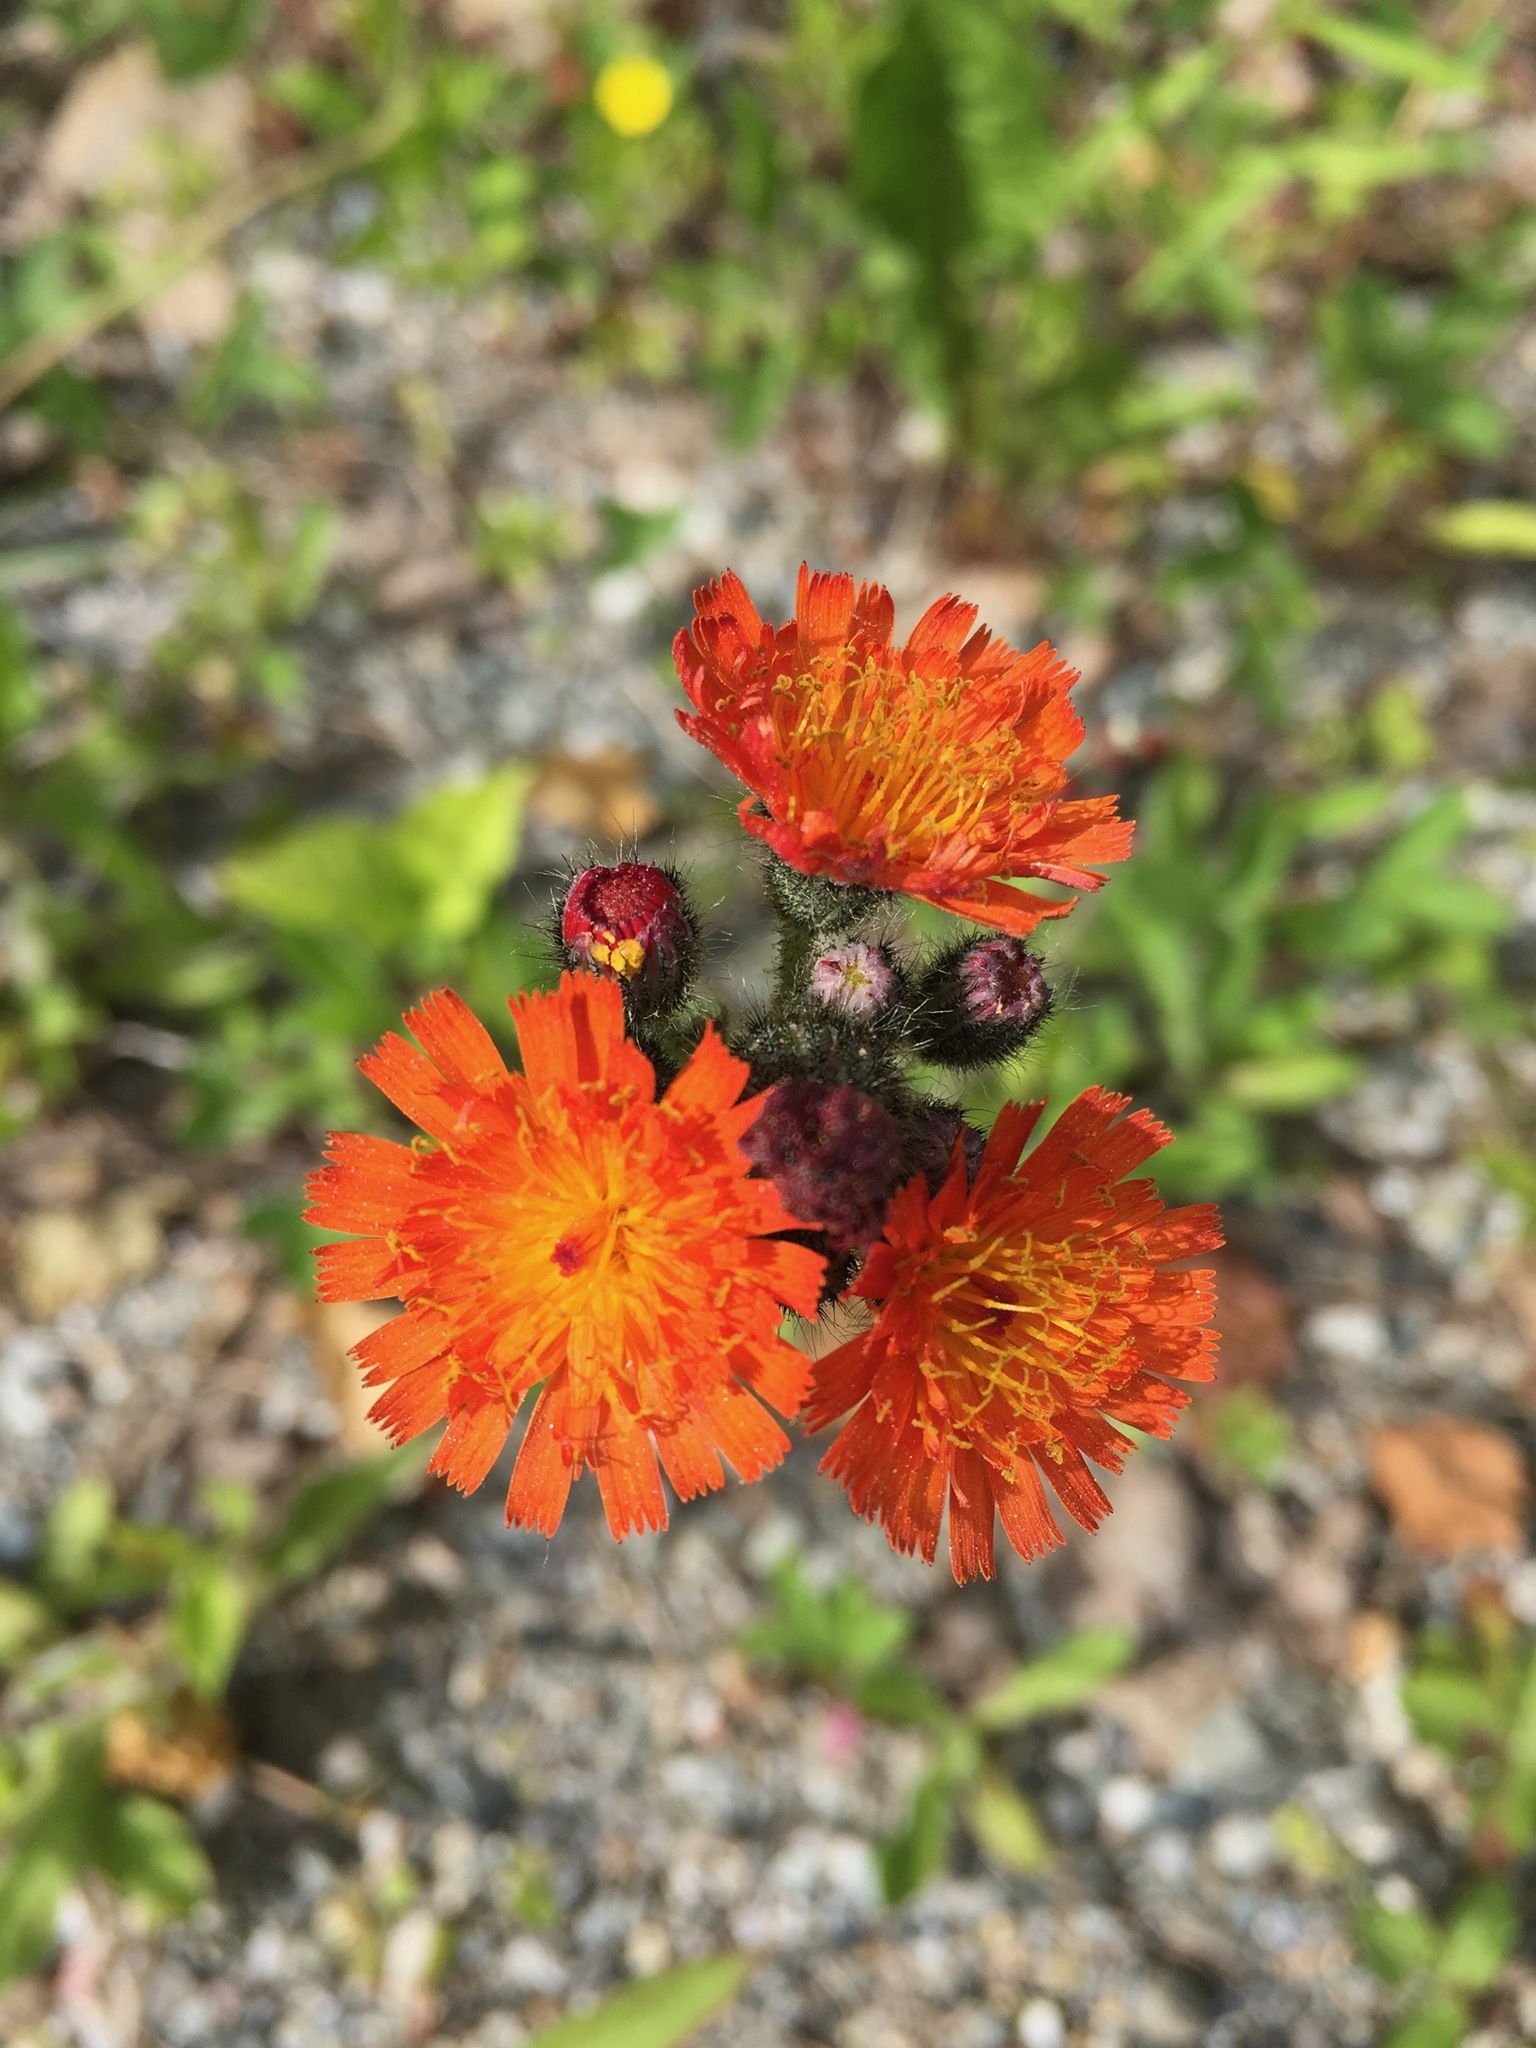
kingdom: Plantae
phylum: Tracheophyta
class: Magnoliopsida
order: Asterales
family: Asteraceae
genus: Pilosella
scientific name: Pilosella aurantiaca
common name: Fox-and-cubs
